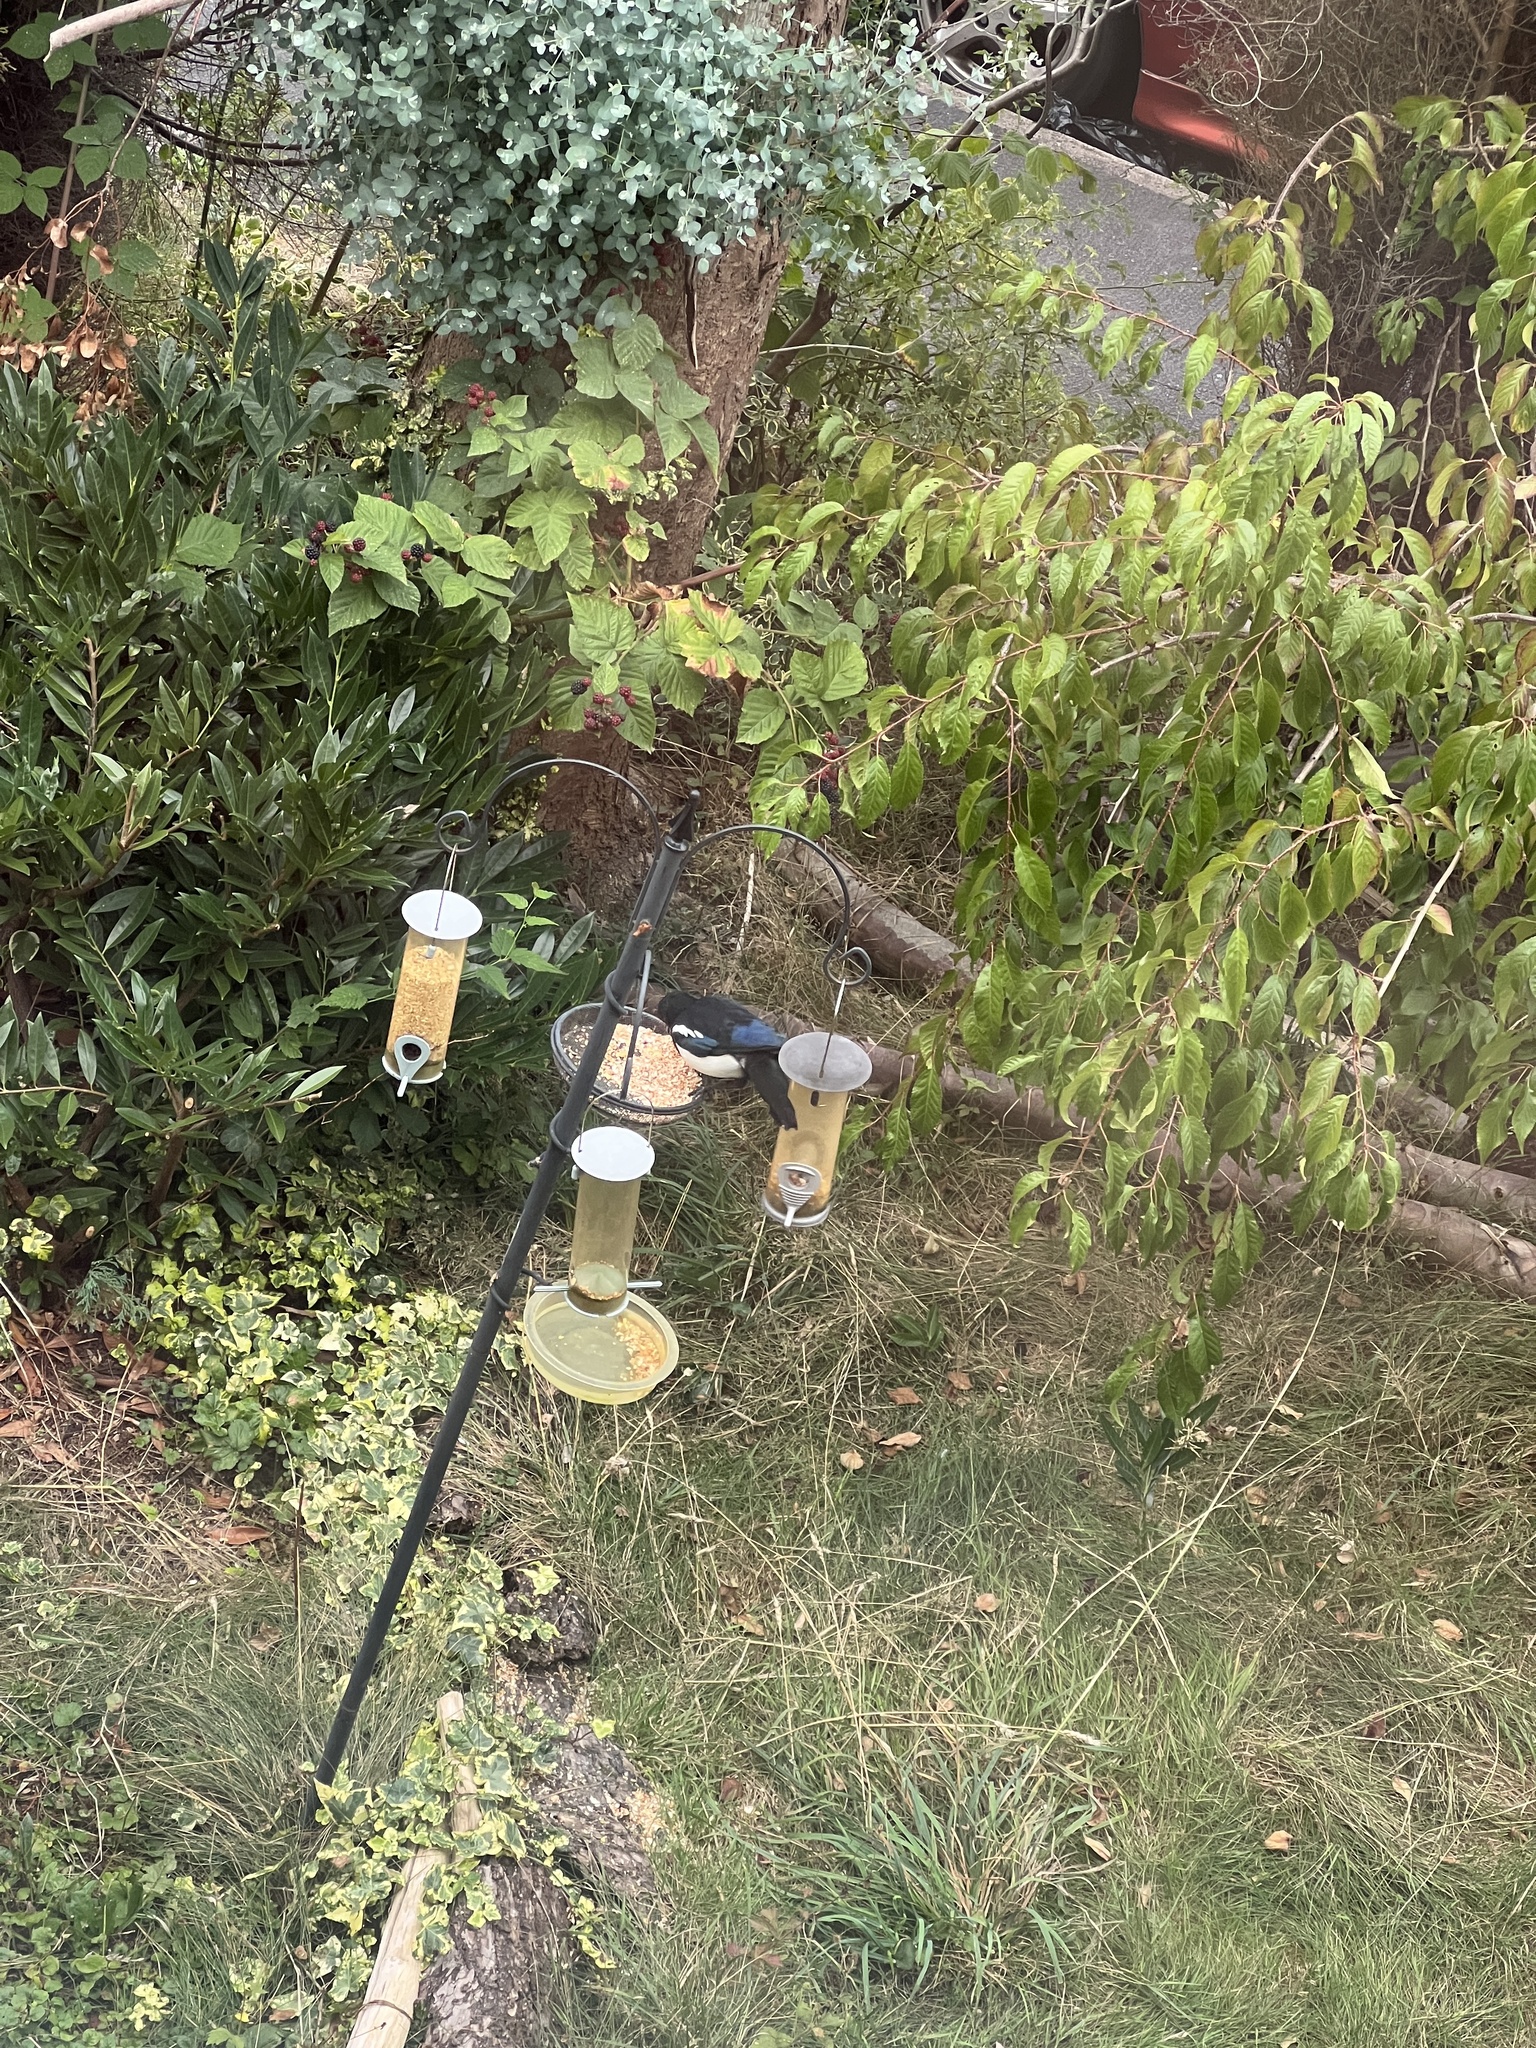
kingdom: Animalia
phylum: Chordata
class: Aves
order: Passeriformes
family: Corvidae
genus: Pica
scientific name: Pica pica
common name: Eurasian magpie
